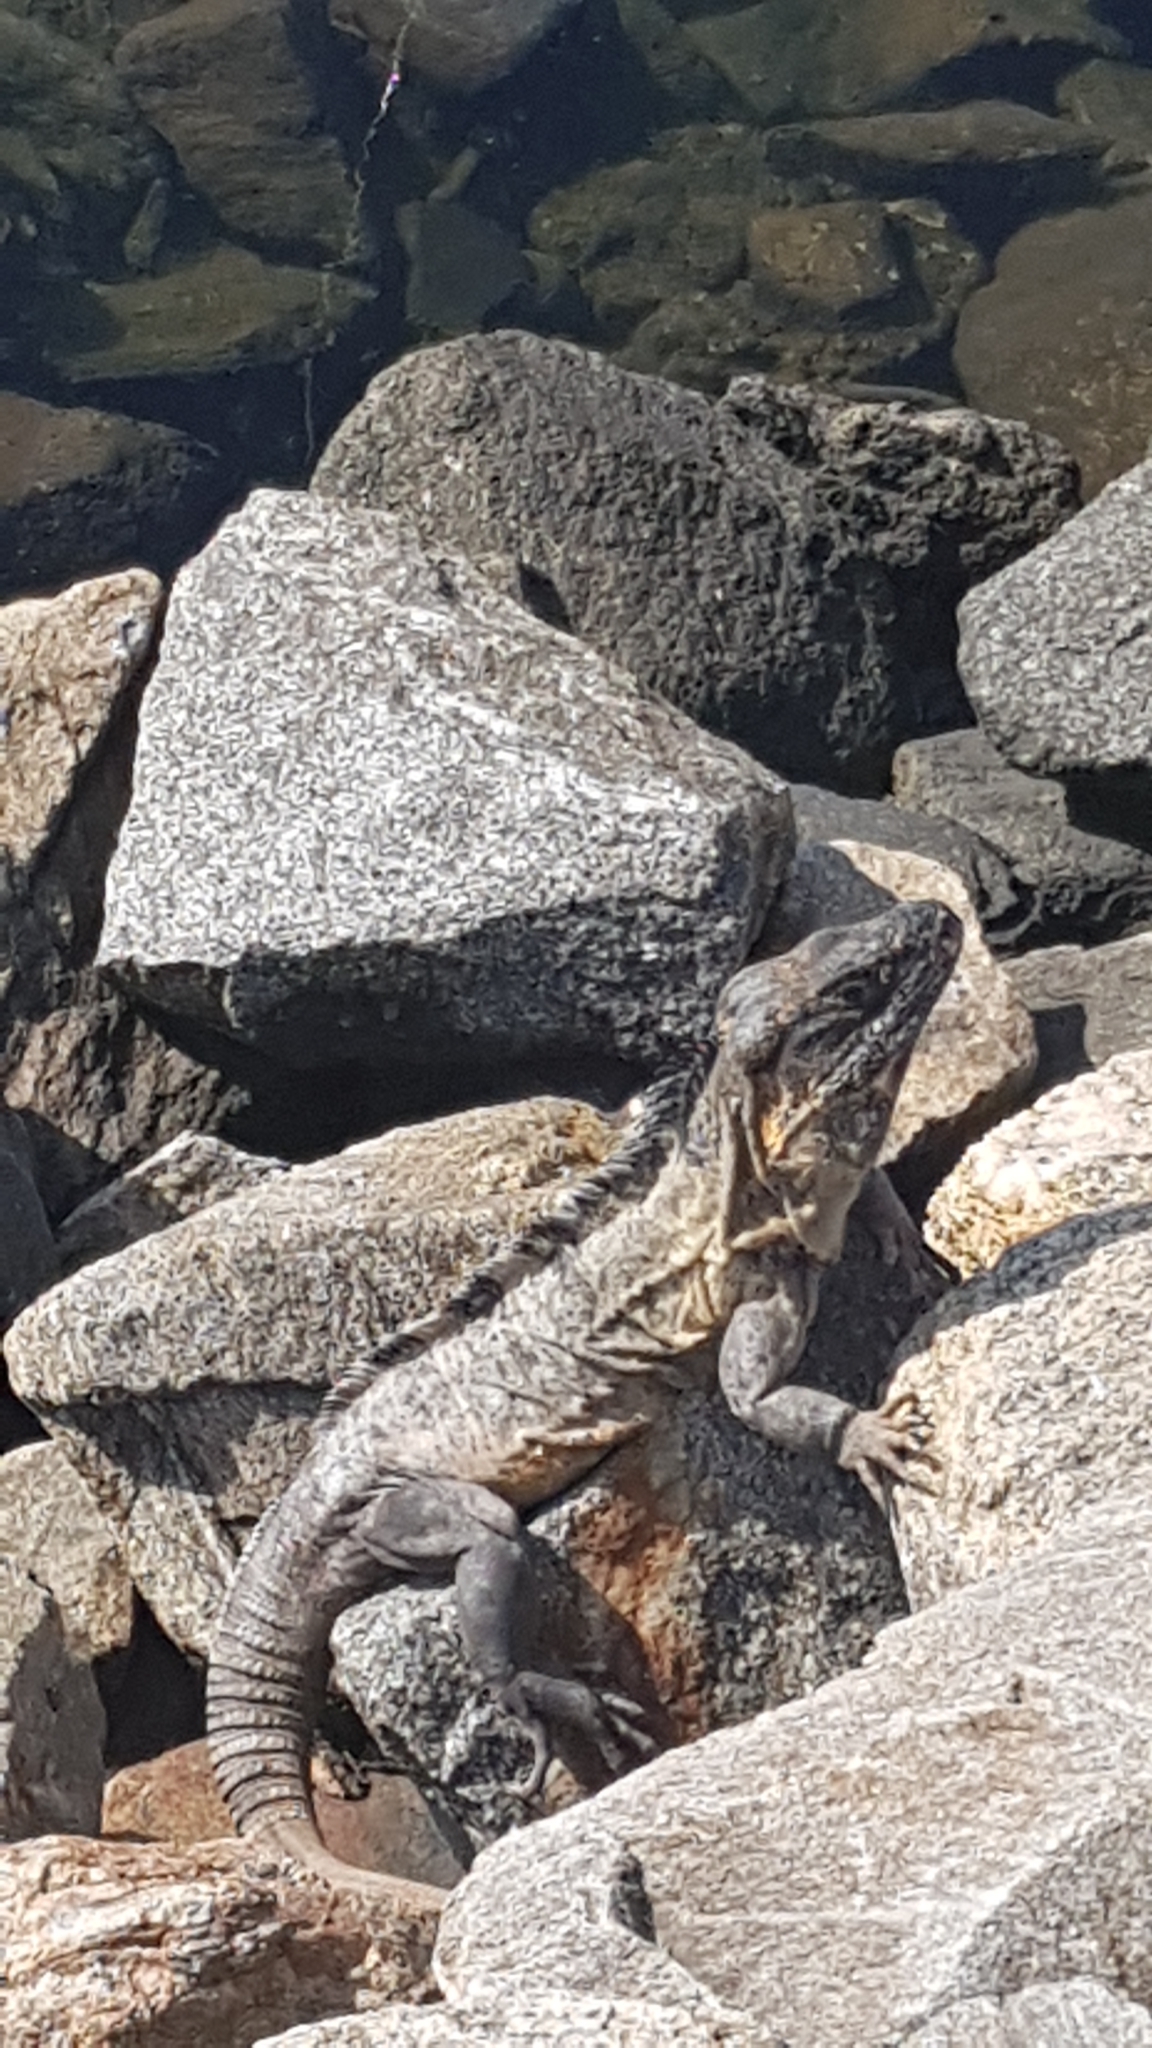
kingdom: Animalia
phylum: Chordata
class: Squamata
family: Iguanidae
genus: Ctenosaura
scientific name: Ctenosaura pectinata
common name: Guerreran spiny-tailed iguana
